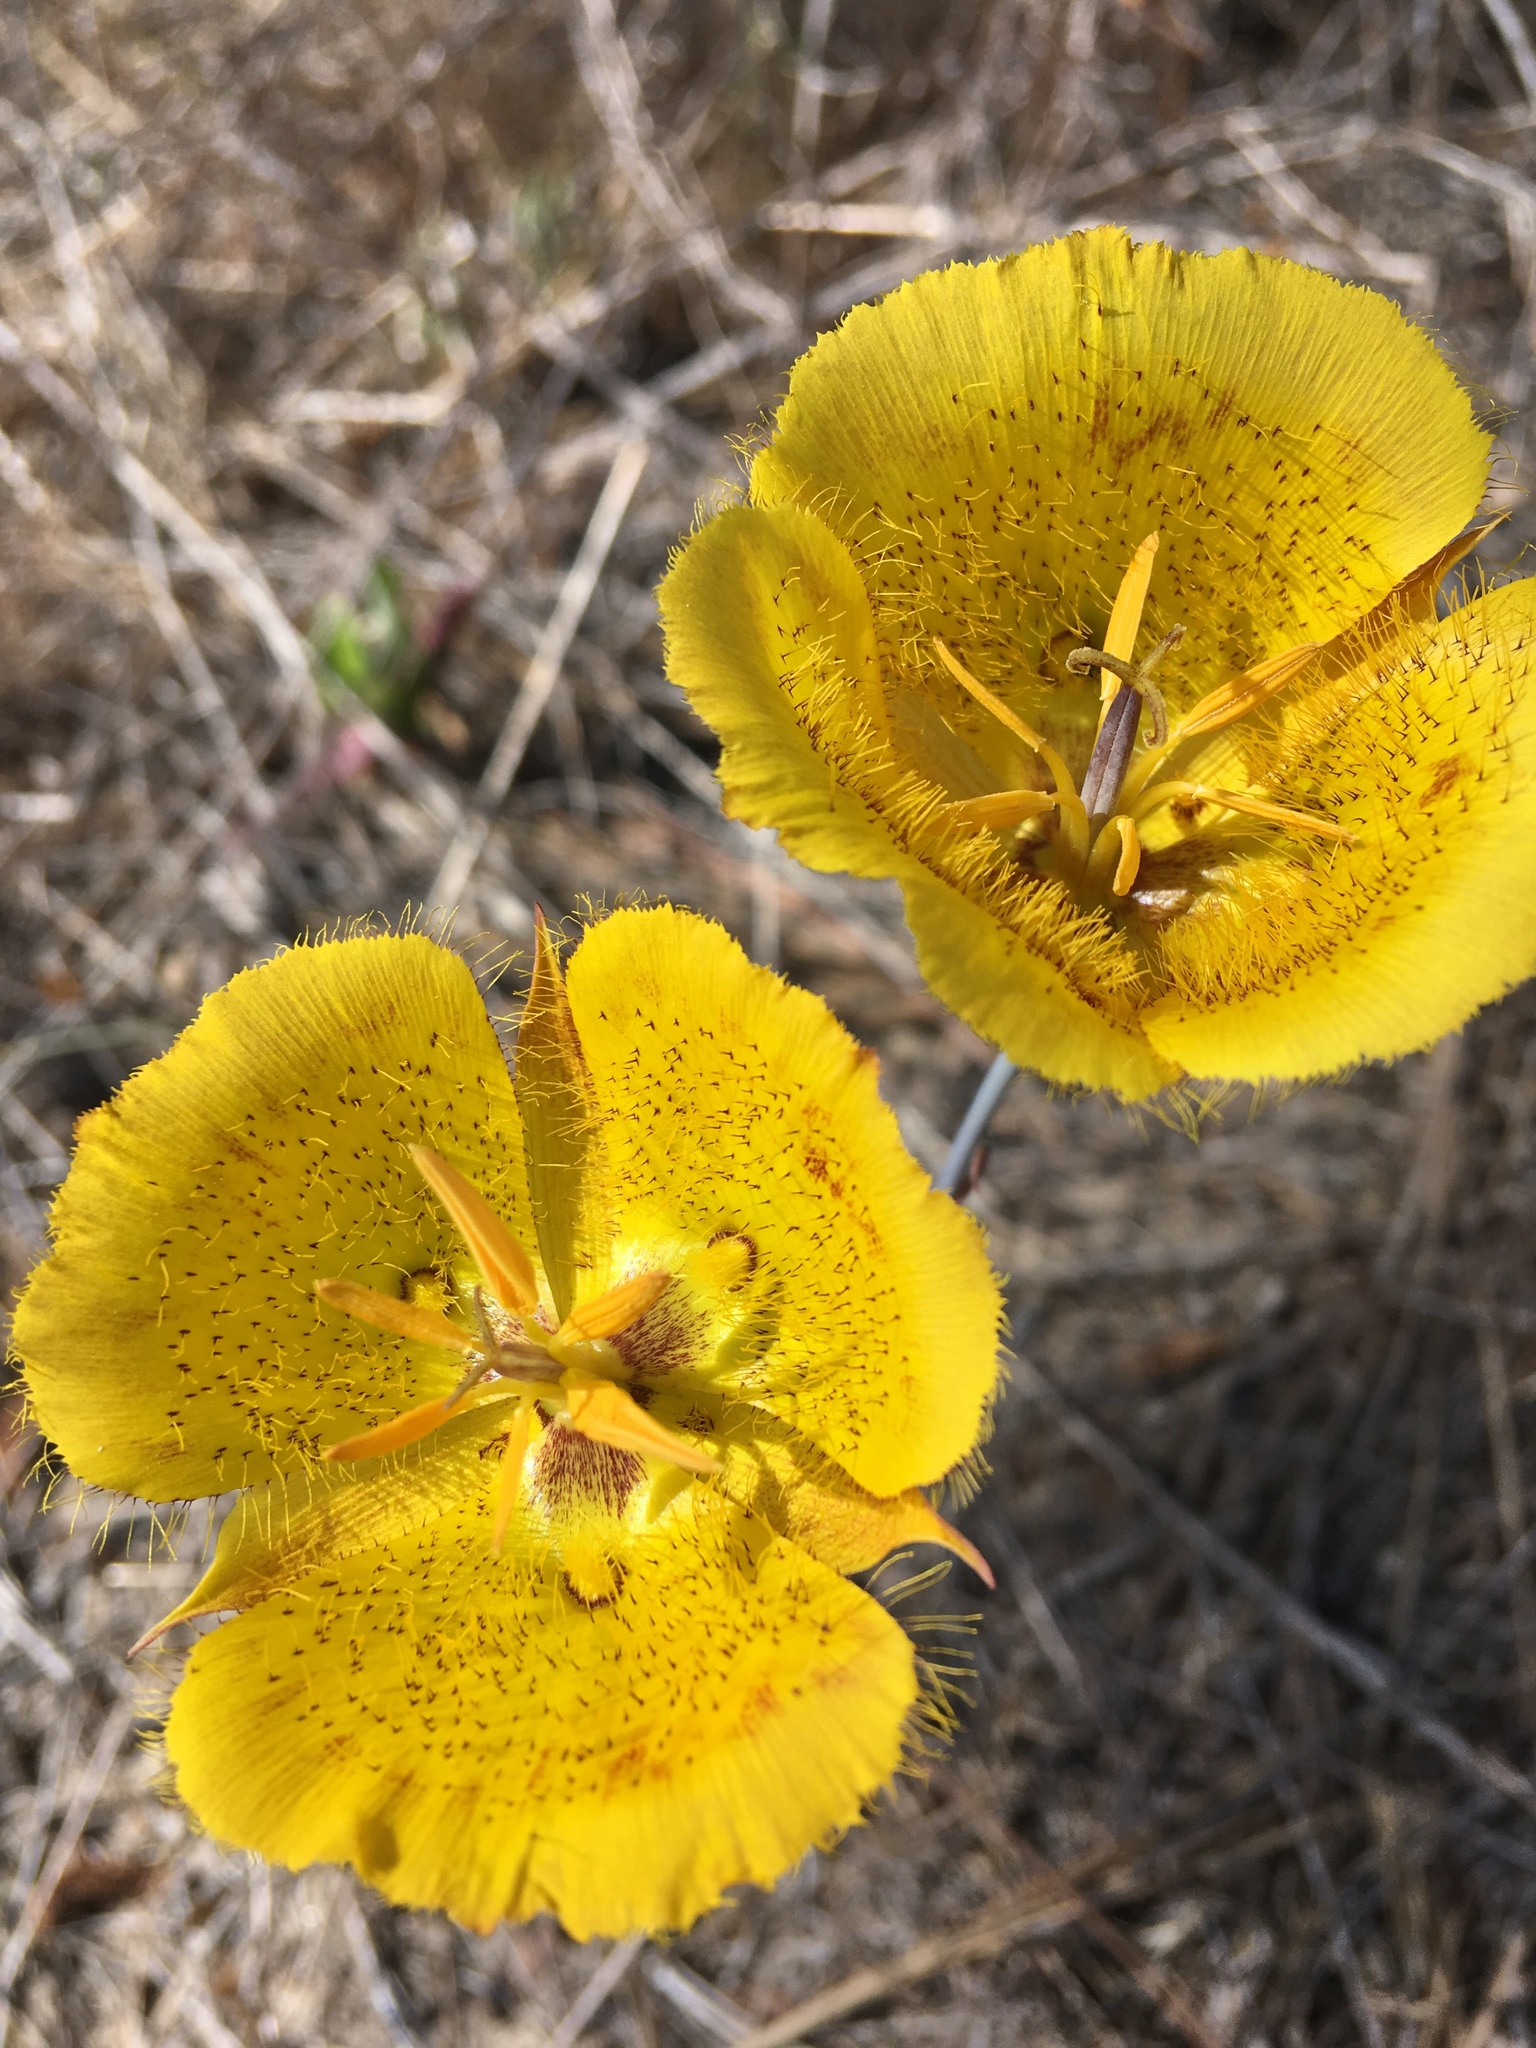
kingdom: Plantae
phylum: Tracheophyta
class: Liliopsida
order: Liliales
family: Liliaceae
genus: Calochortus
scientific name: Calochortus weedii
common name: Weed's mariposa-lily
